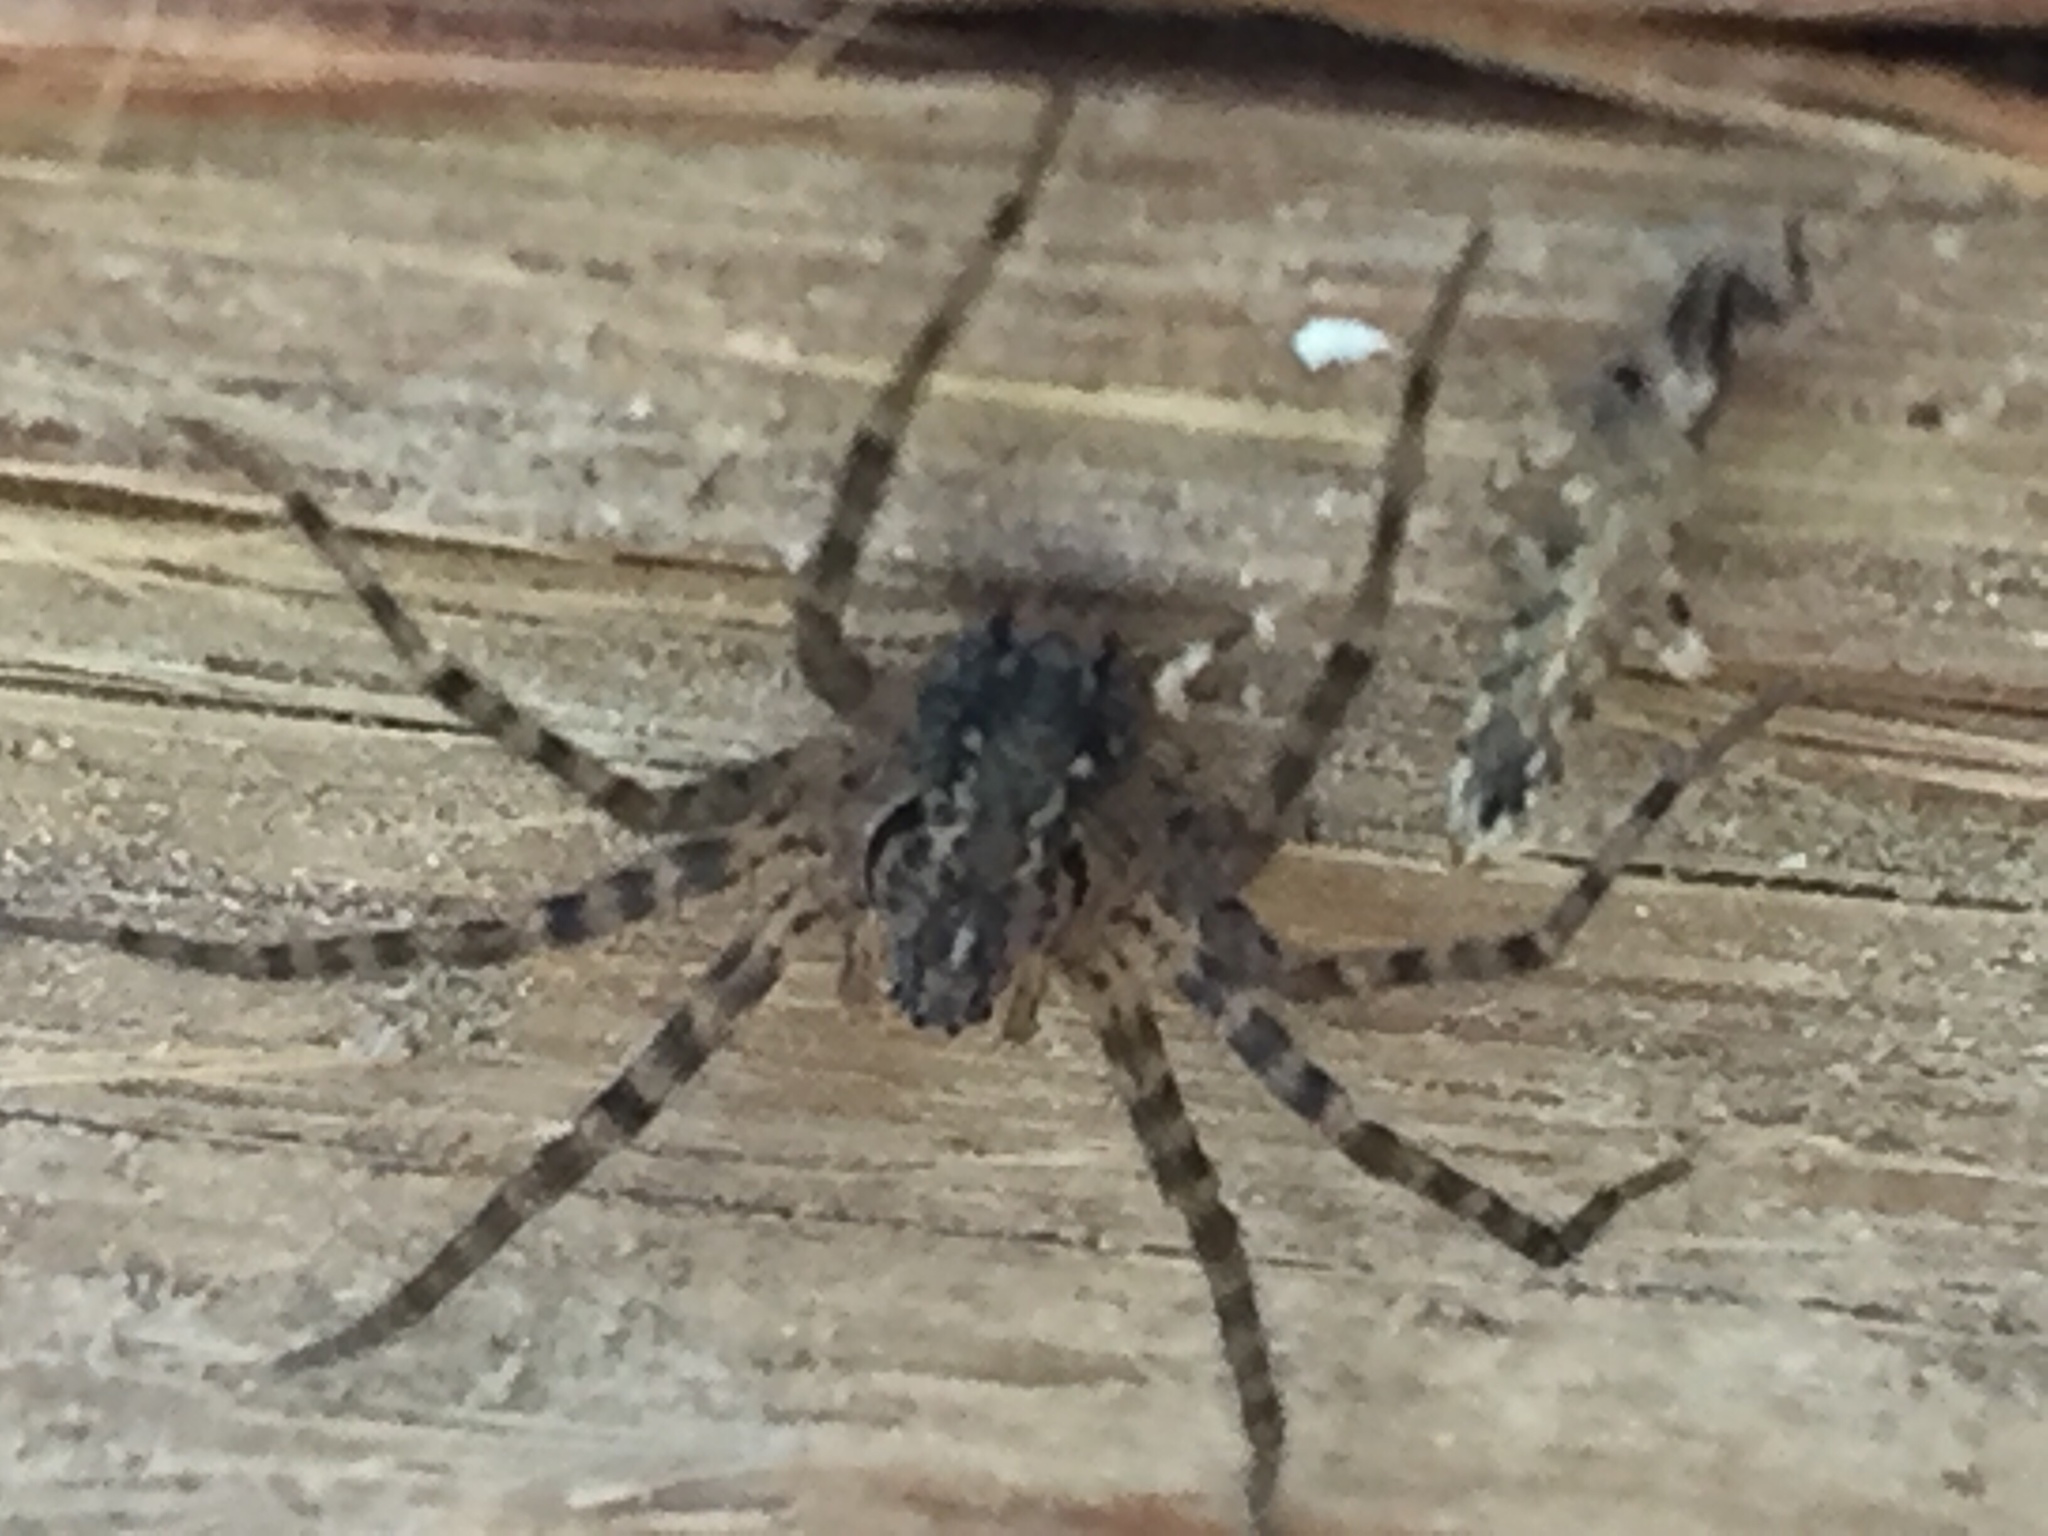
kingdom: Animalia
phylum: Arthropoda
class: Arachnida
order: Araneae
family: Stiphidiidae
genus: Stiphidion
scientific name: Stiphidion facetum
